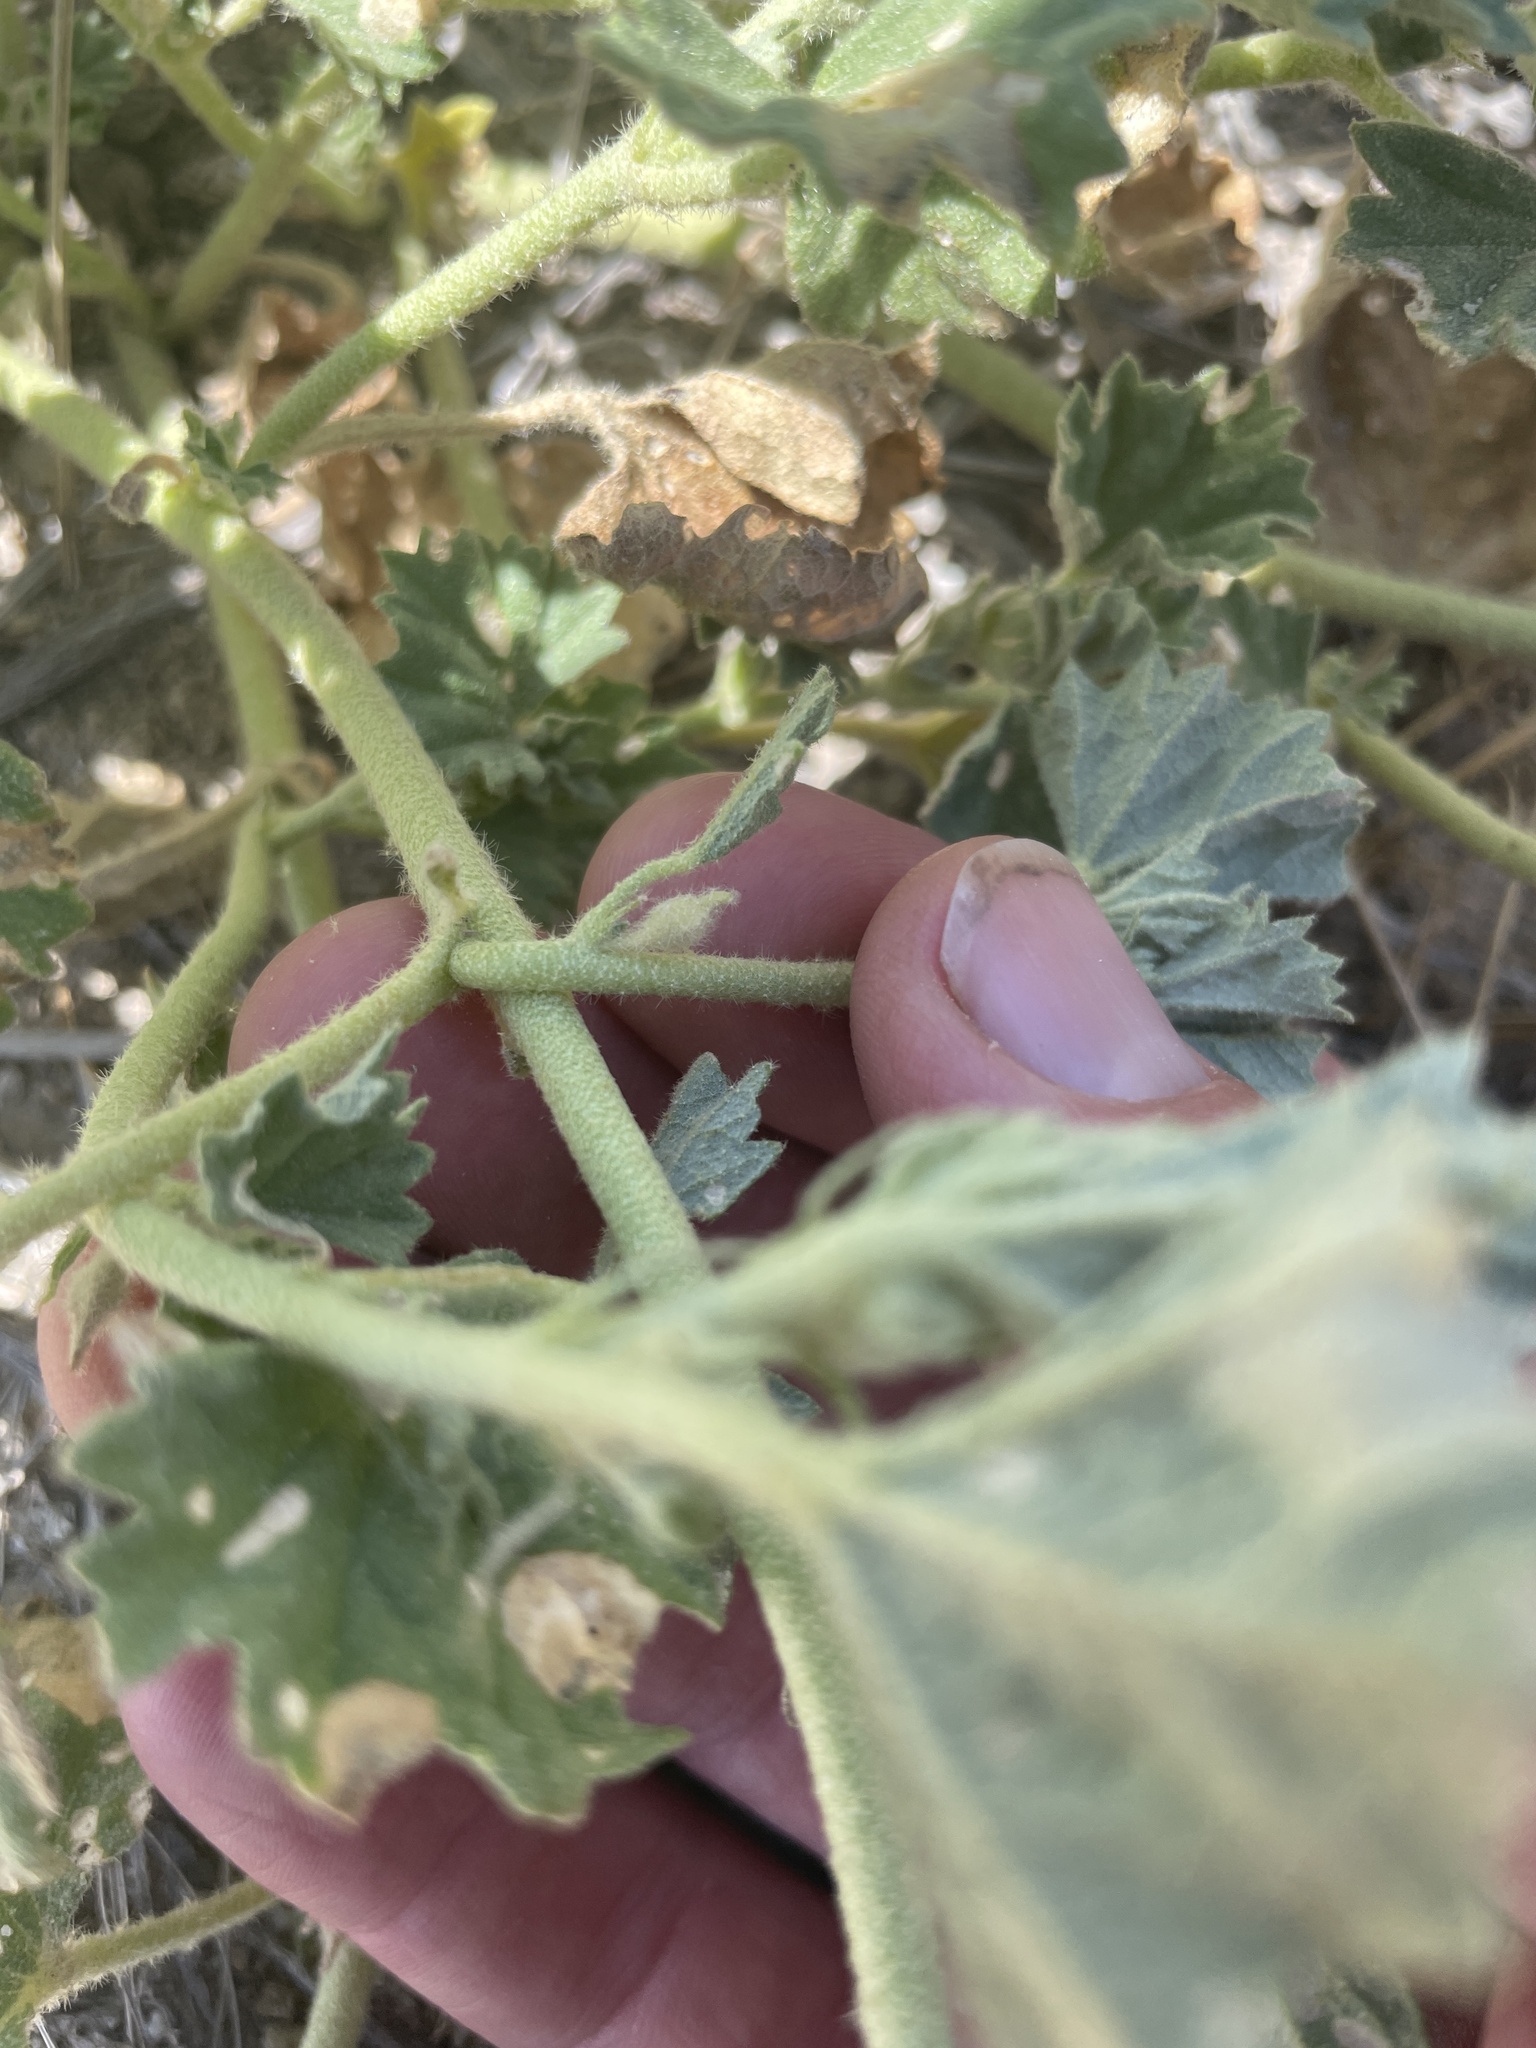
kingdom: Plantae
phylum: Tracheophyta
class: Magnoliopsida
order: Malvales
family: Malvaceae
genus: Malvella
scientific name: Malvella leprosa
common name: Alkali-mallow
